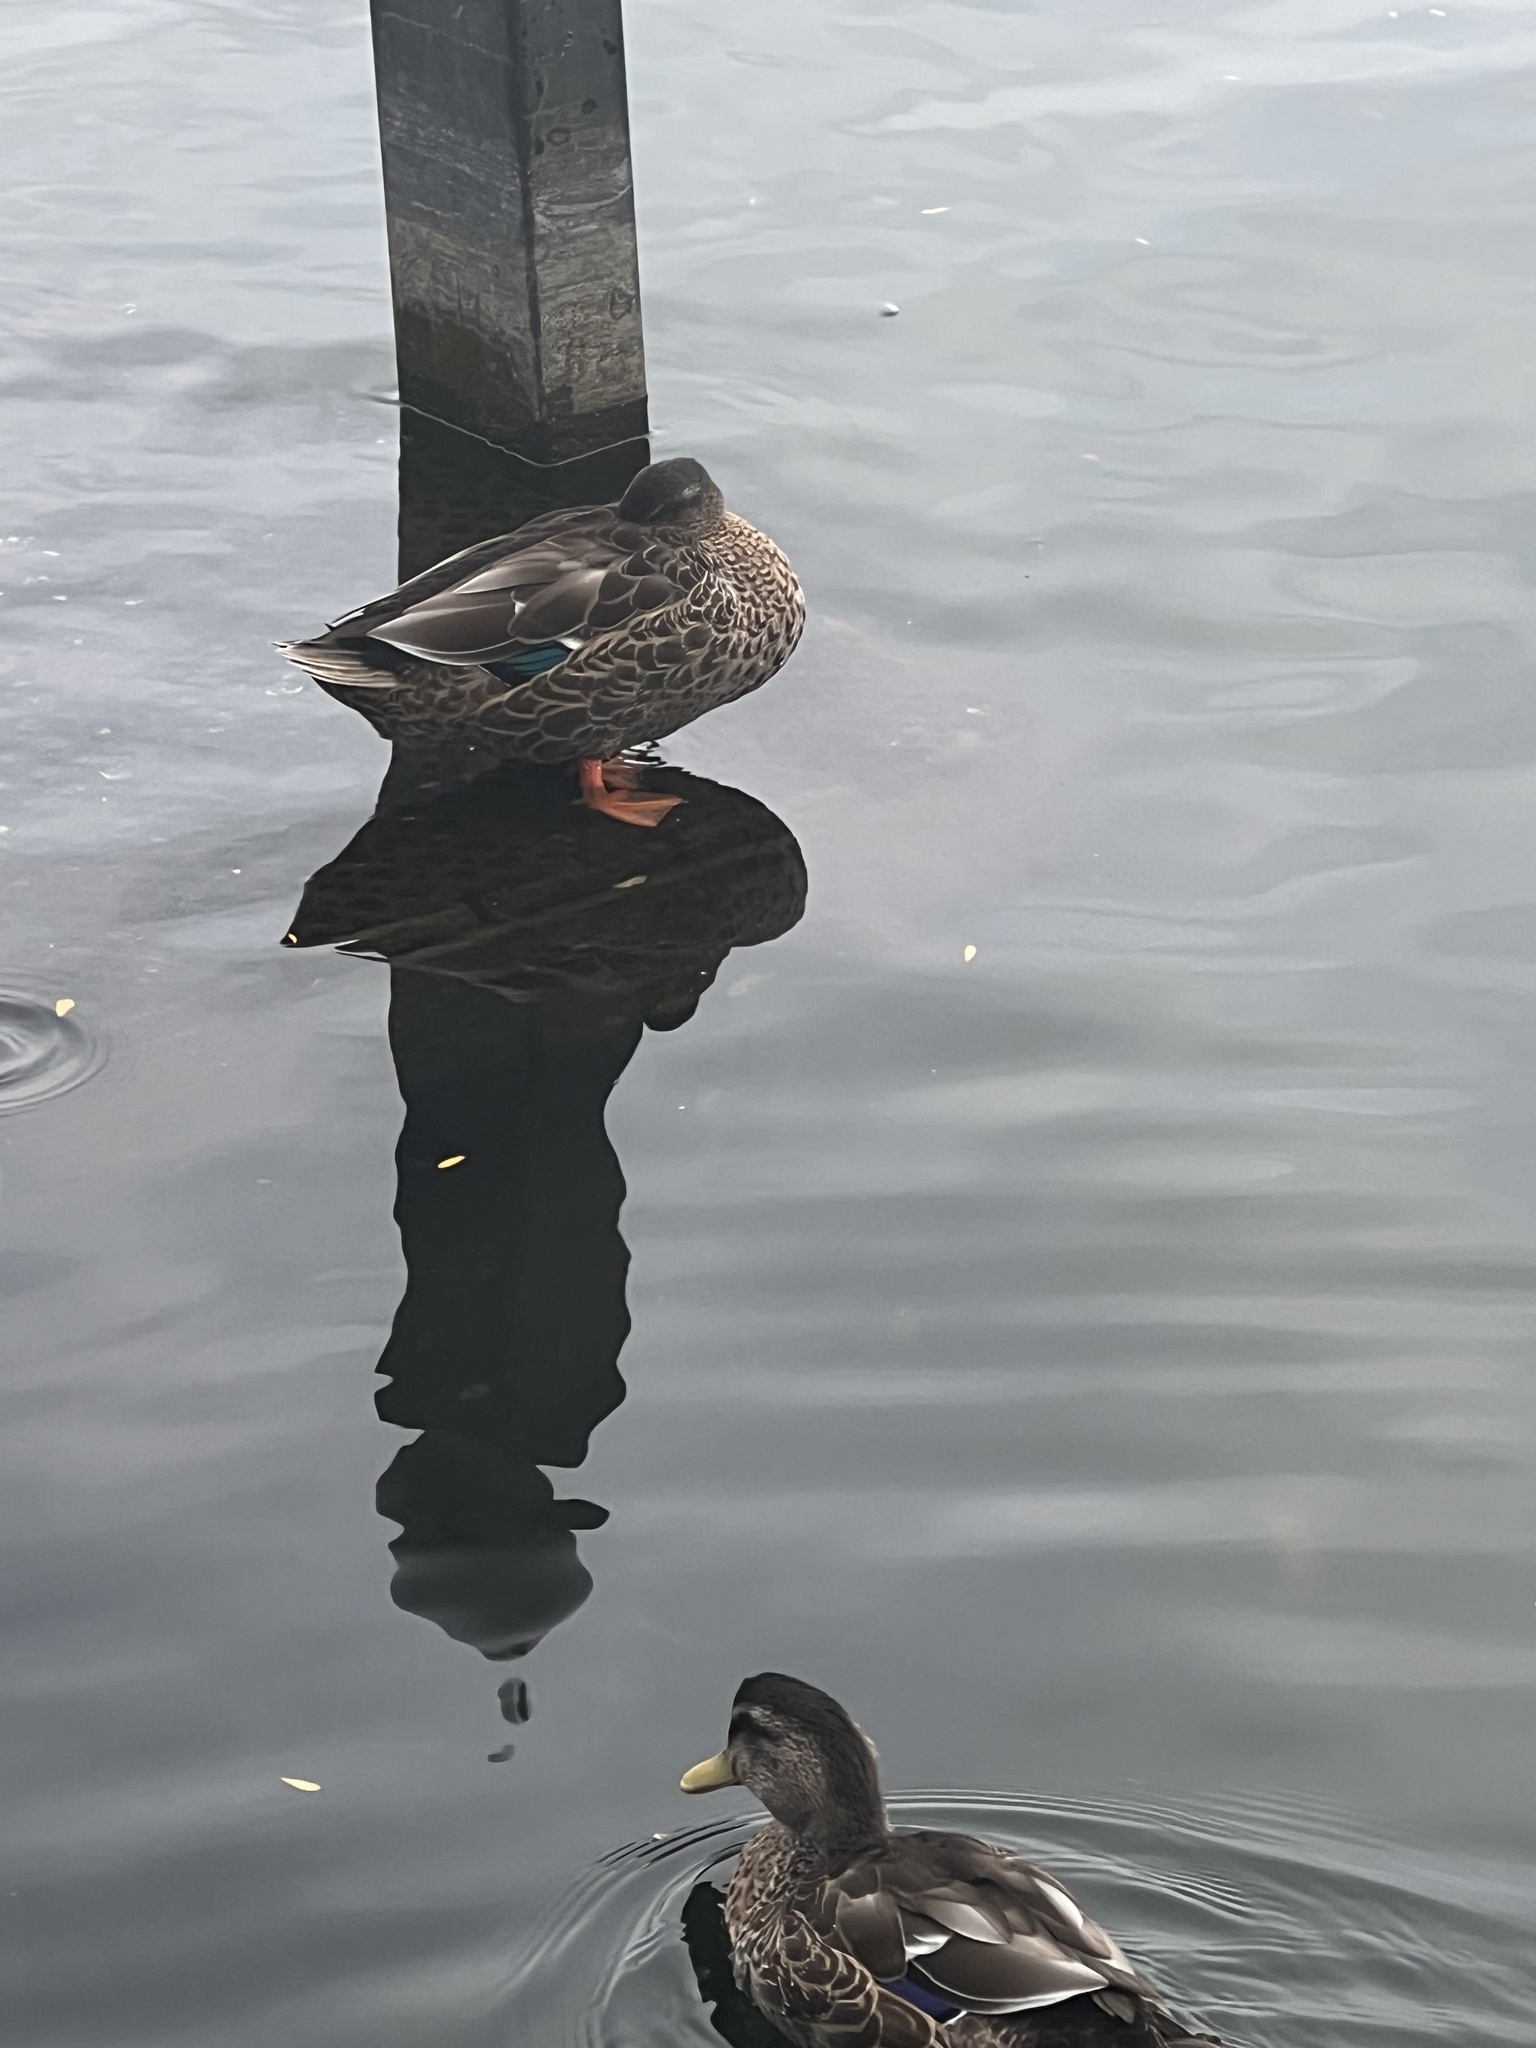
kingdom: Animalia
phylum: Chordata
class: Aves
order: Anseriformes
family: Anatidae
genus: Anas
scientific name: Anas
